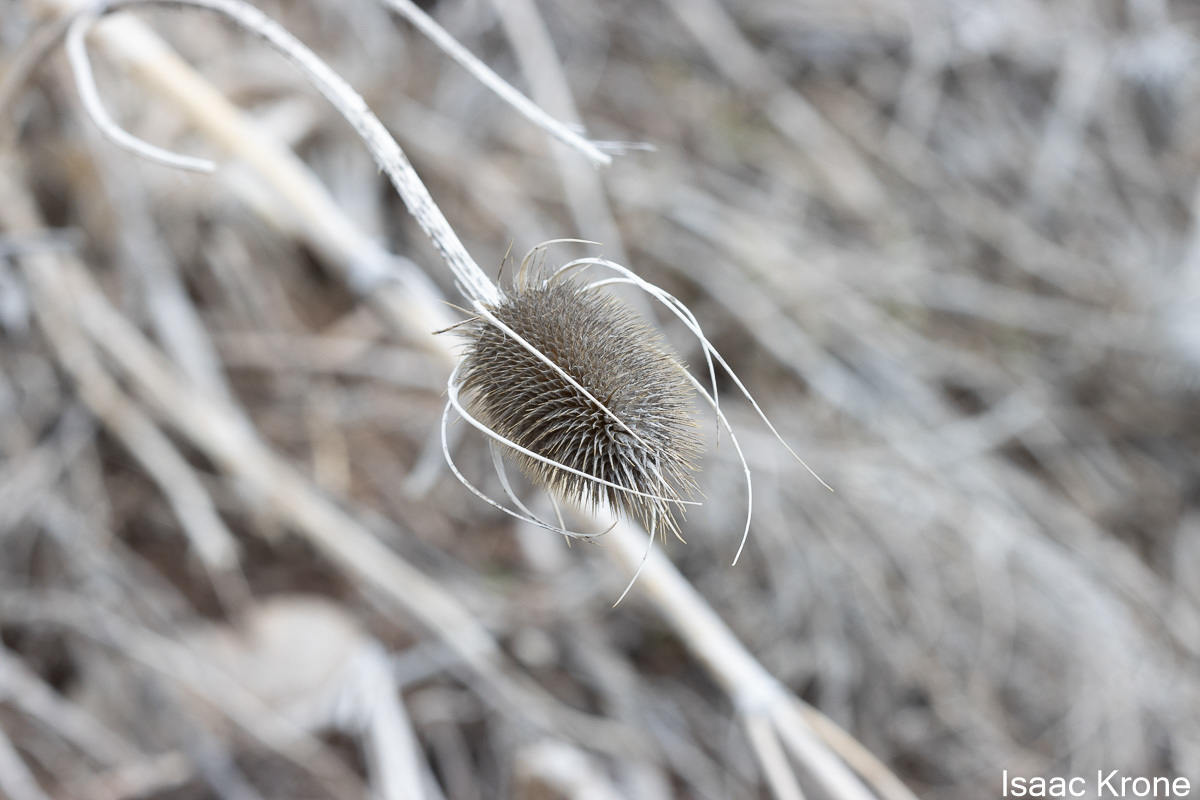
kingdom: Plantae
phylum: Tracheophyta
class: Magnoliopsida
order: Dipsacales
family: Caprifoliaceae
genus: Dipsacus
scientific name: Dipsacus fullonum
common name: Teasel
